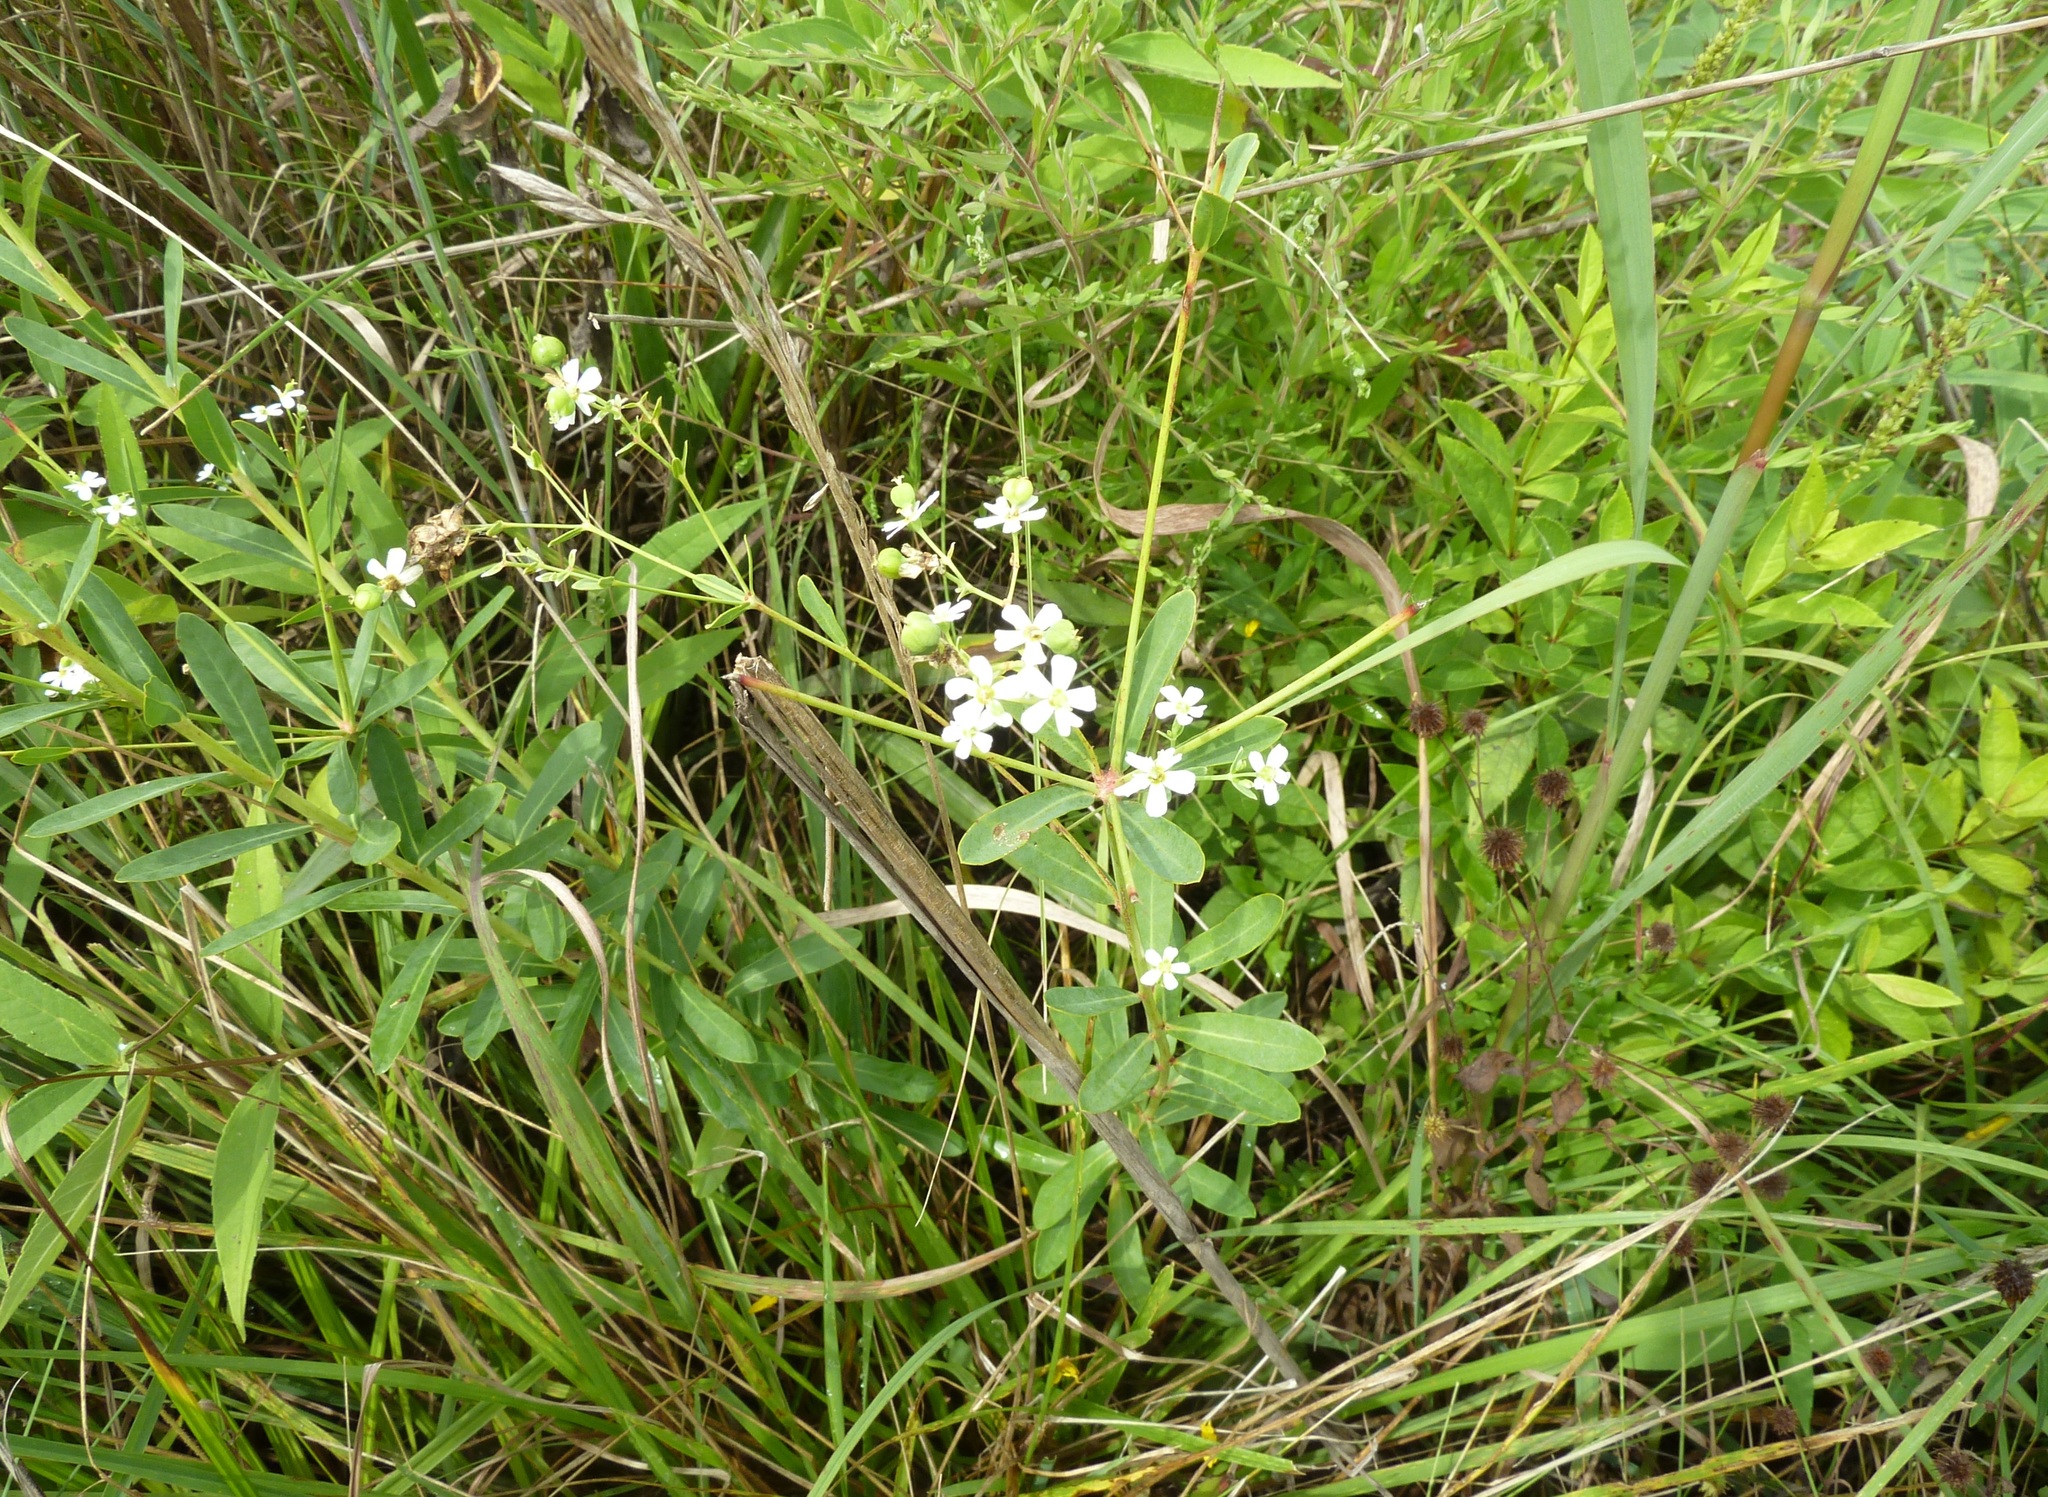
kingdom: Plantae
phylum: Tracheophyta
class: Magnoliopsida
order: Malpighiales
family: Euphorbiaceae
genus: Euphorbia
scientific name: Euphorbia corollata
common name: Flowering spurge
